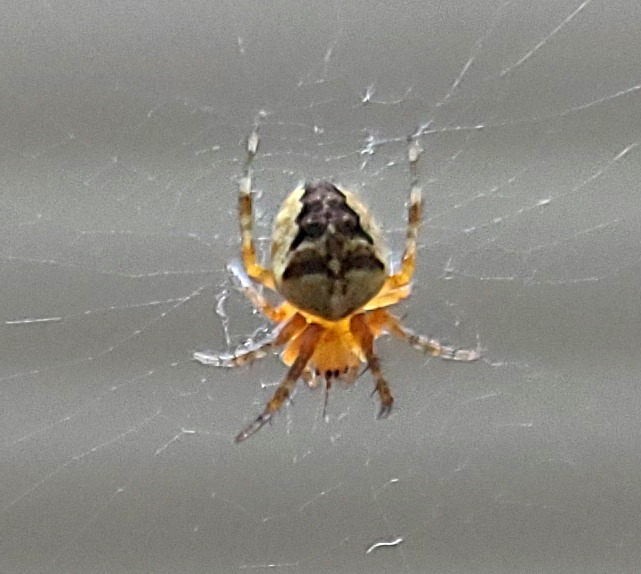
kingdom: Animalia
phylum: Arthropoda
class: Arachnida
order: Araneae
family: Araneidae
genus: Araneus
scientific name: Araneus diadematus
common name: Cross orbweaver
